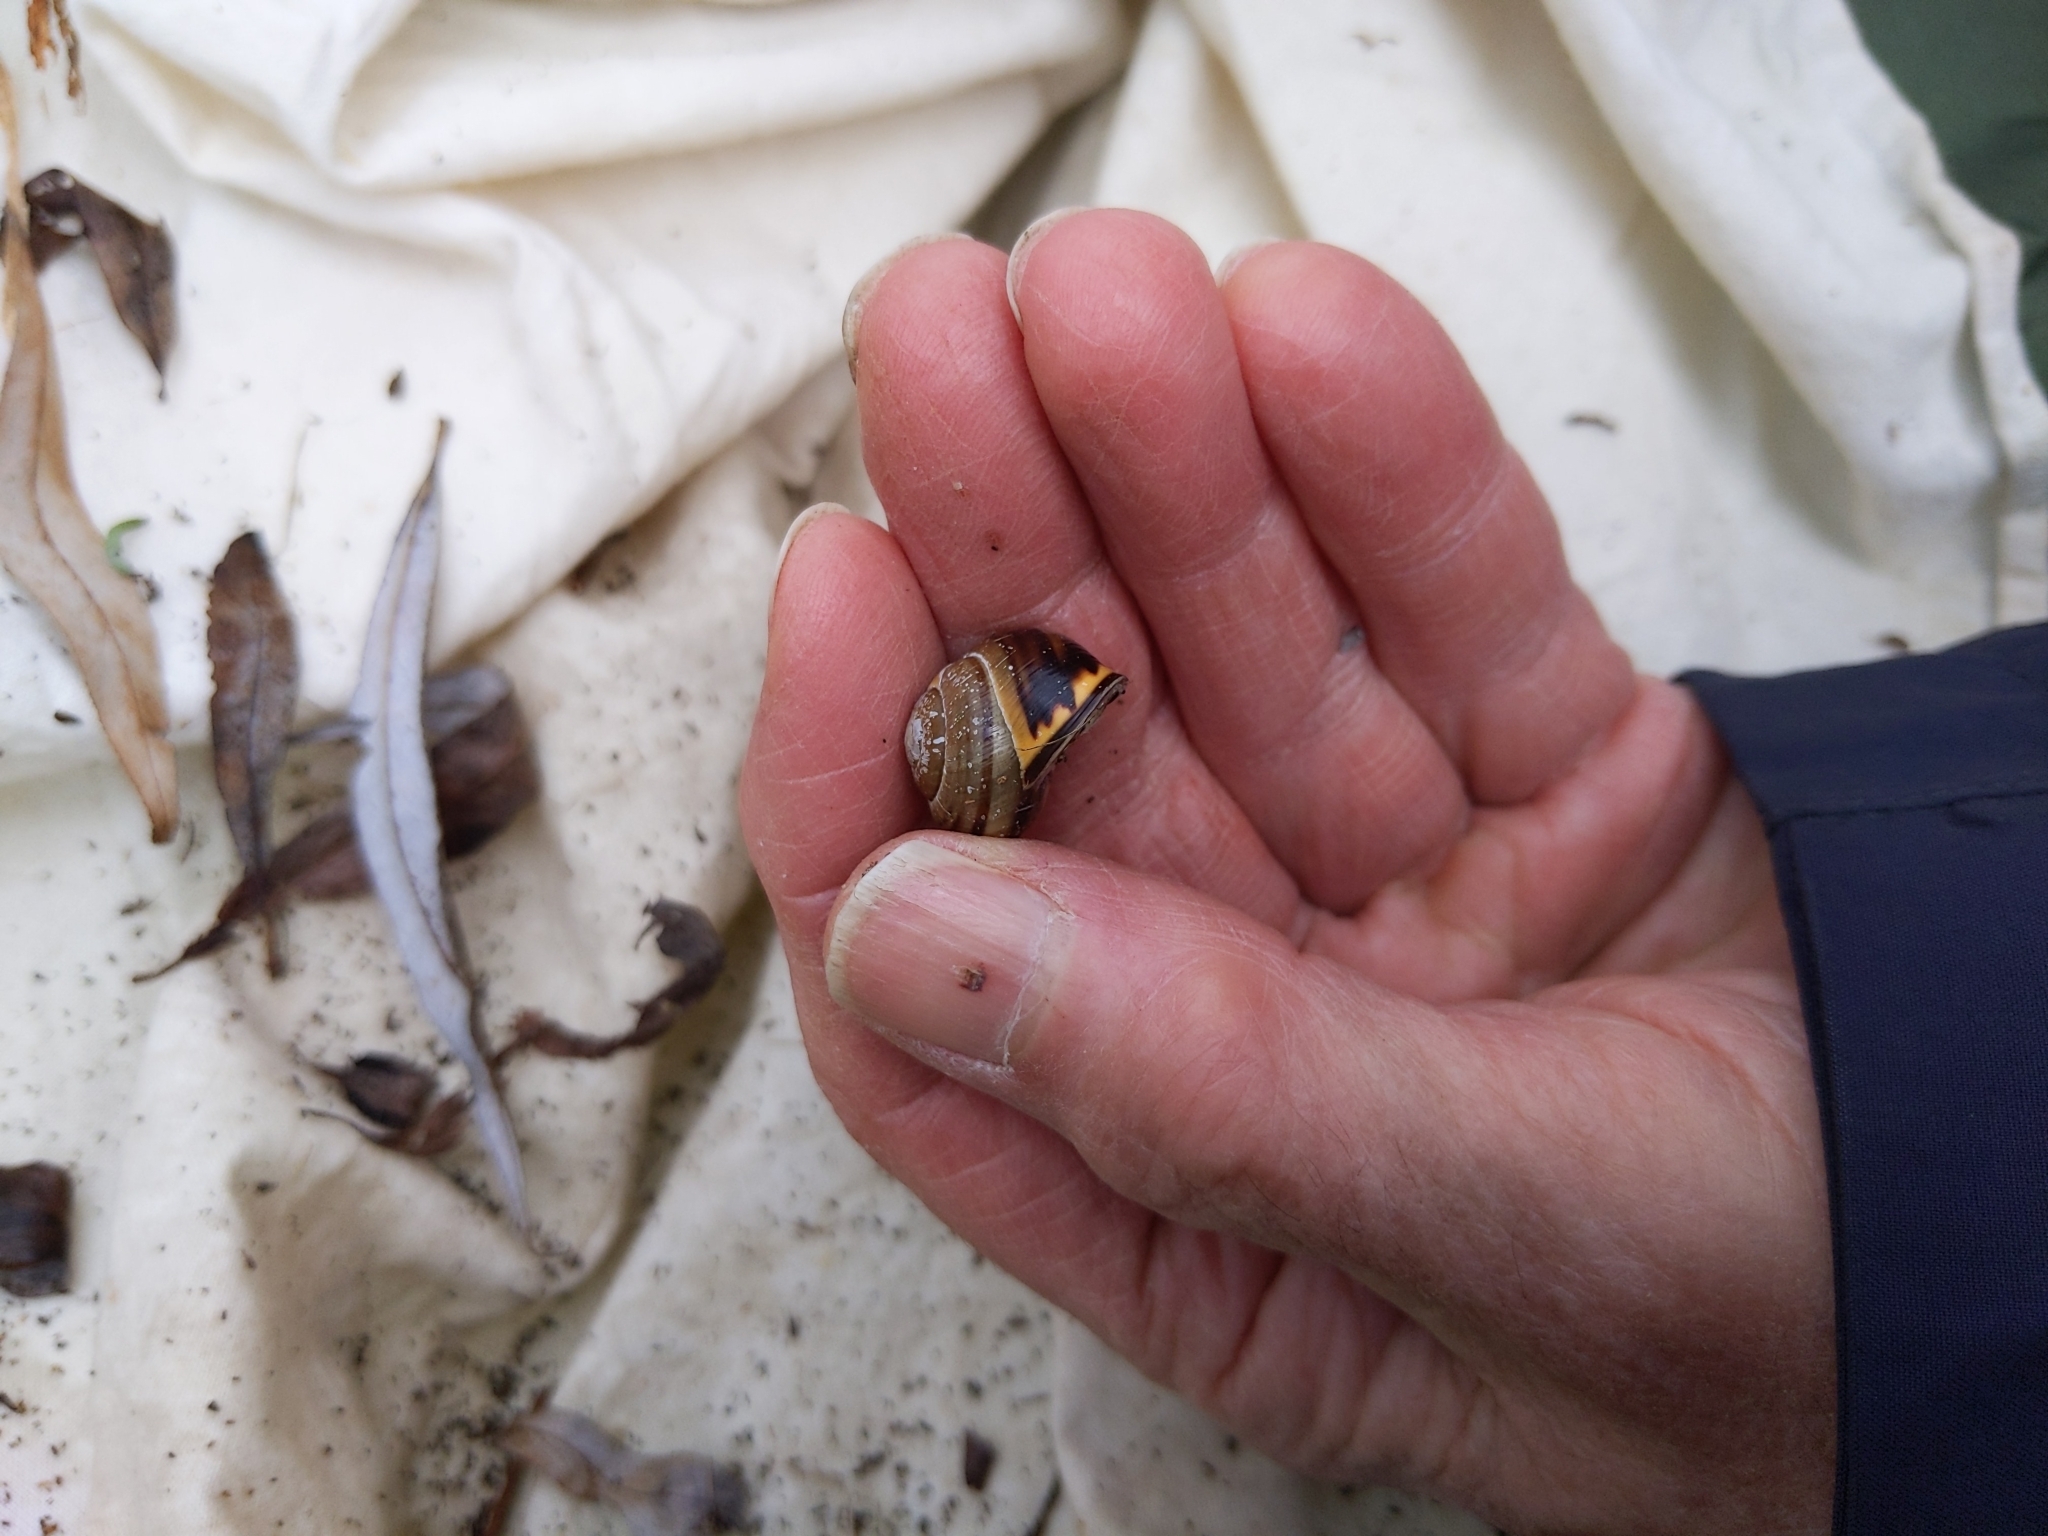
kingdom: Animalia
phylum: Mollusca
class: Gastropoda
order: Stylommatophora
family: Helicidae
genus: Cepaea
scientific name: Cepaea nemoralis
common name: Grovesnail
